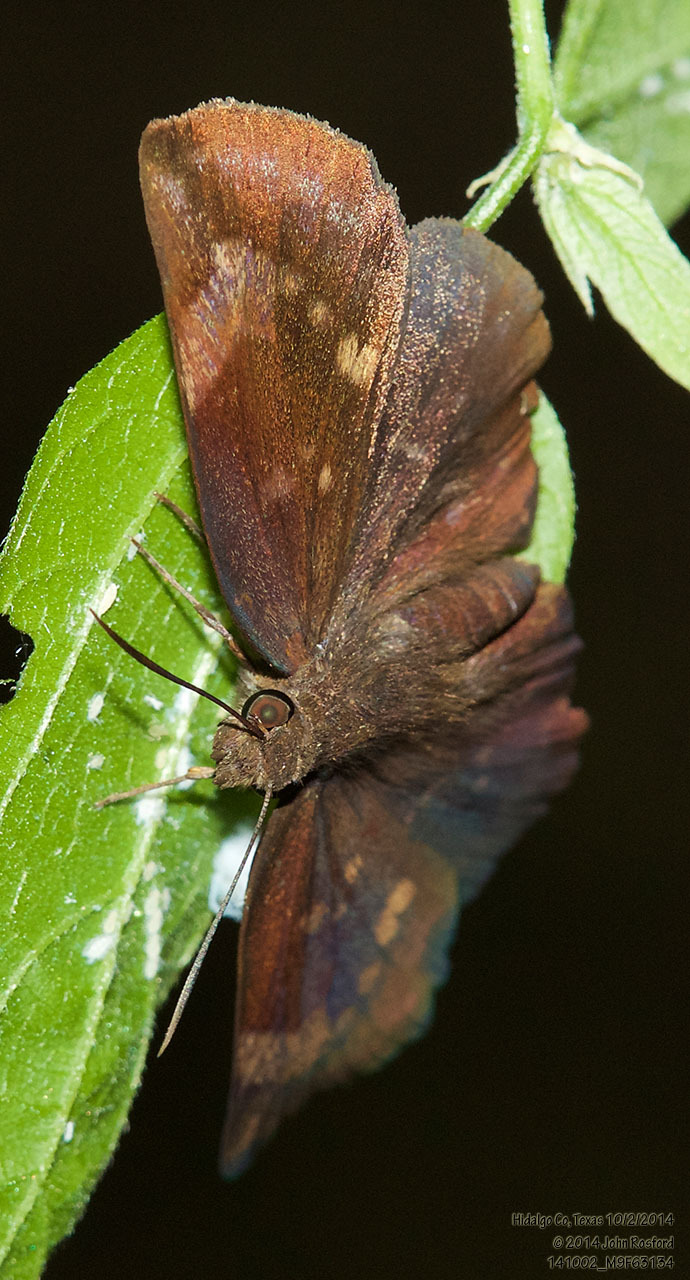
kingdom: Animalia
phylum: Arthropoda
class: Insecta
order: Lepidoptera
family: Hesperiidae
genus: Achlyodes
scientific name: Achlyodes thraso
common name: Sickle-winged skipper
